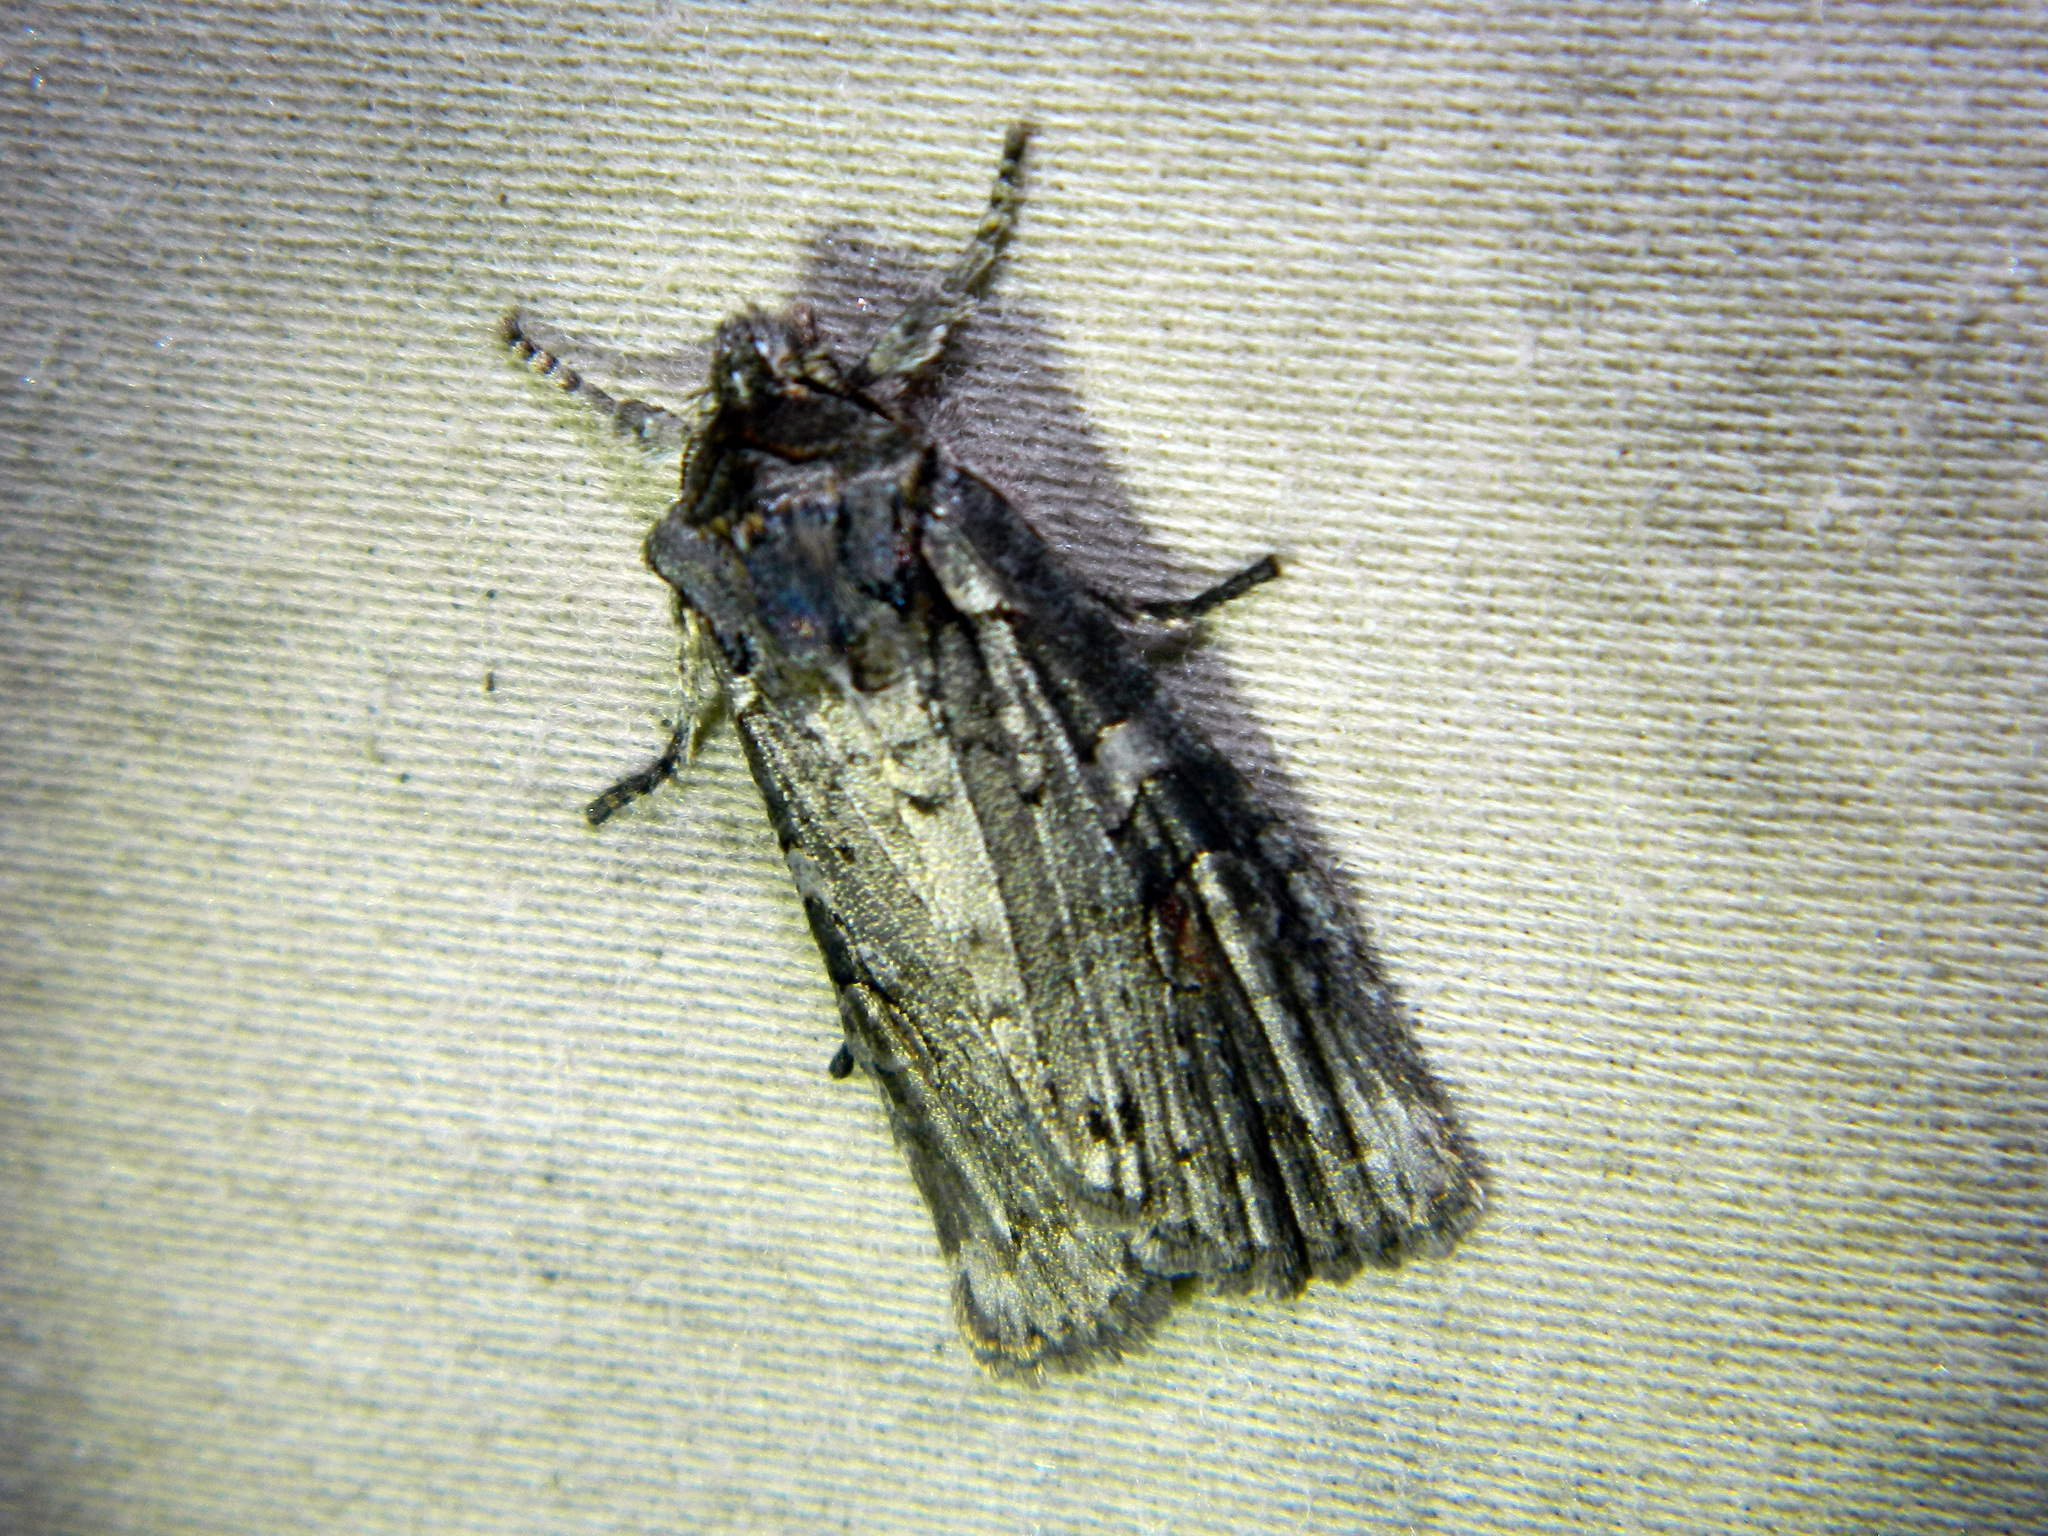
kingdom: Animalia
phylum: Arthropoda
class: Insecta
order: Lepidoptera
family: Noctuidae
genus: Lithophane
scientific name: Lithophane baileyi
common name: Bailey's pinion moth
